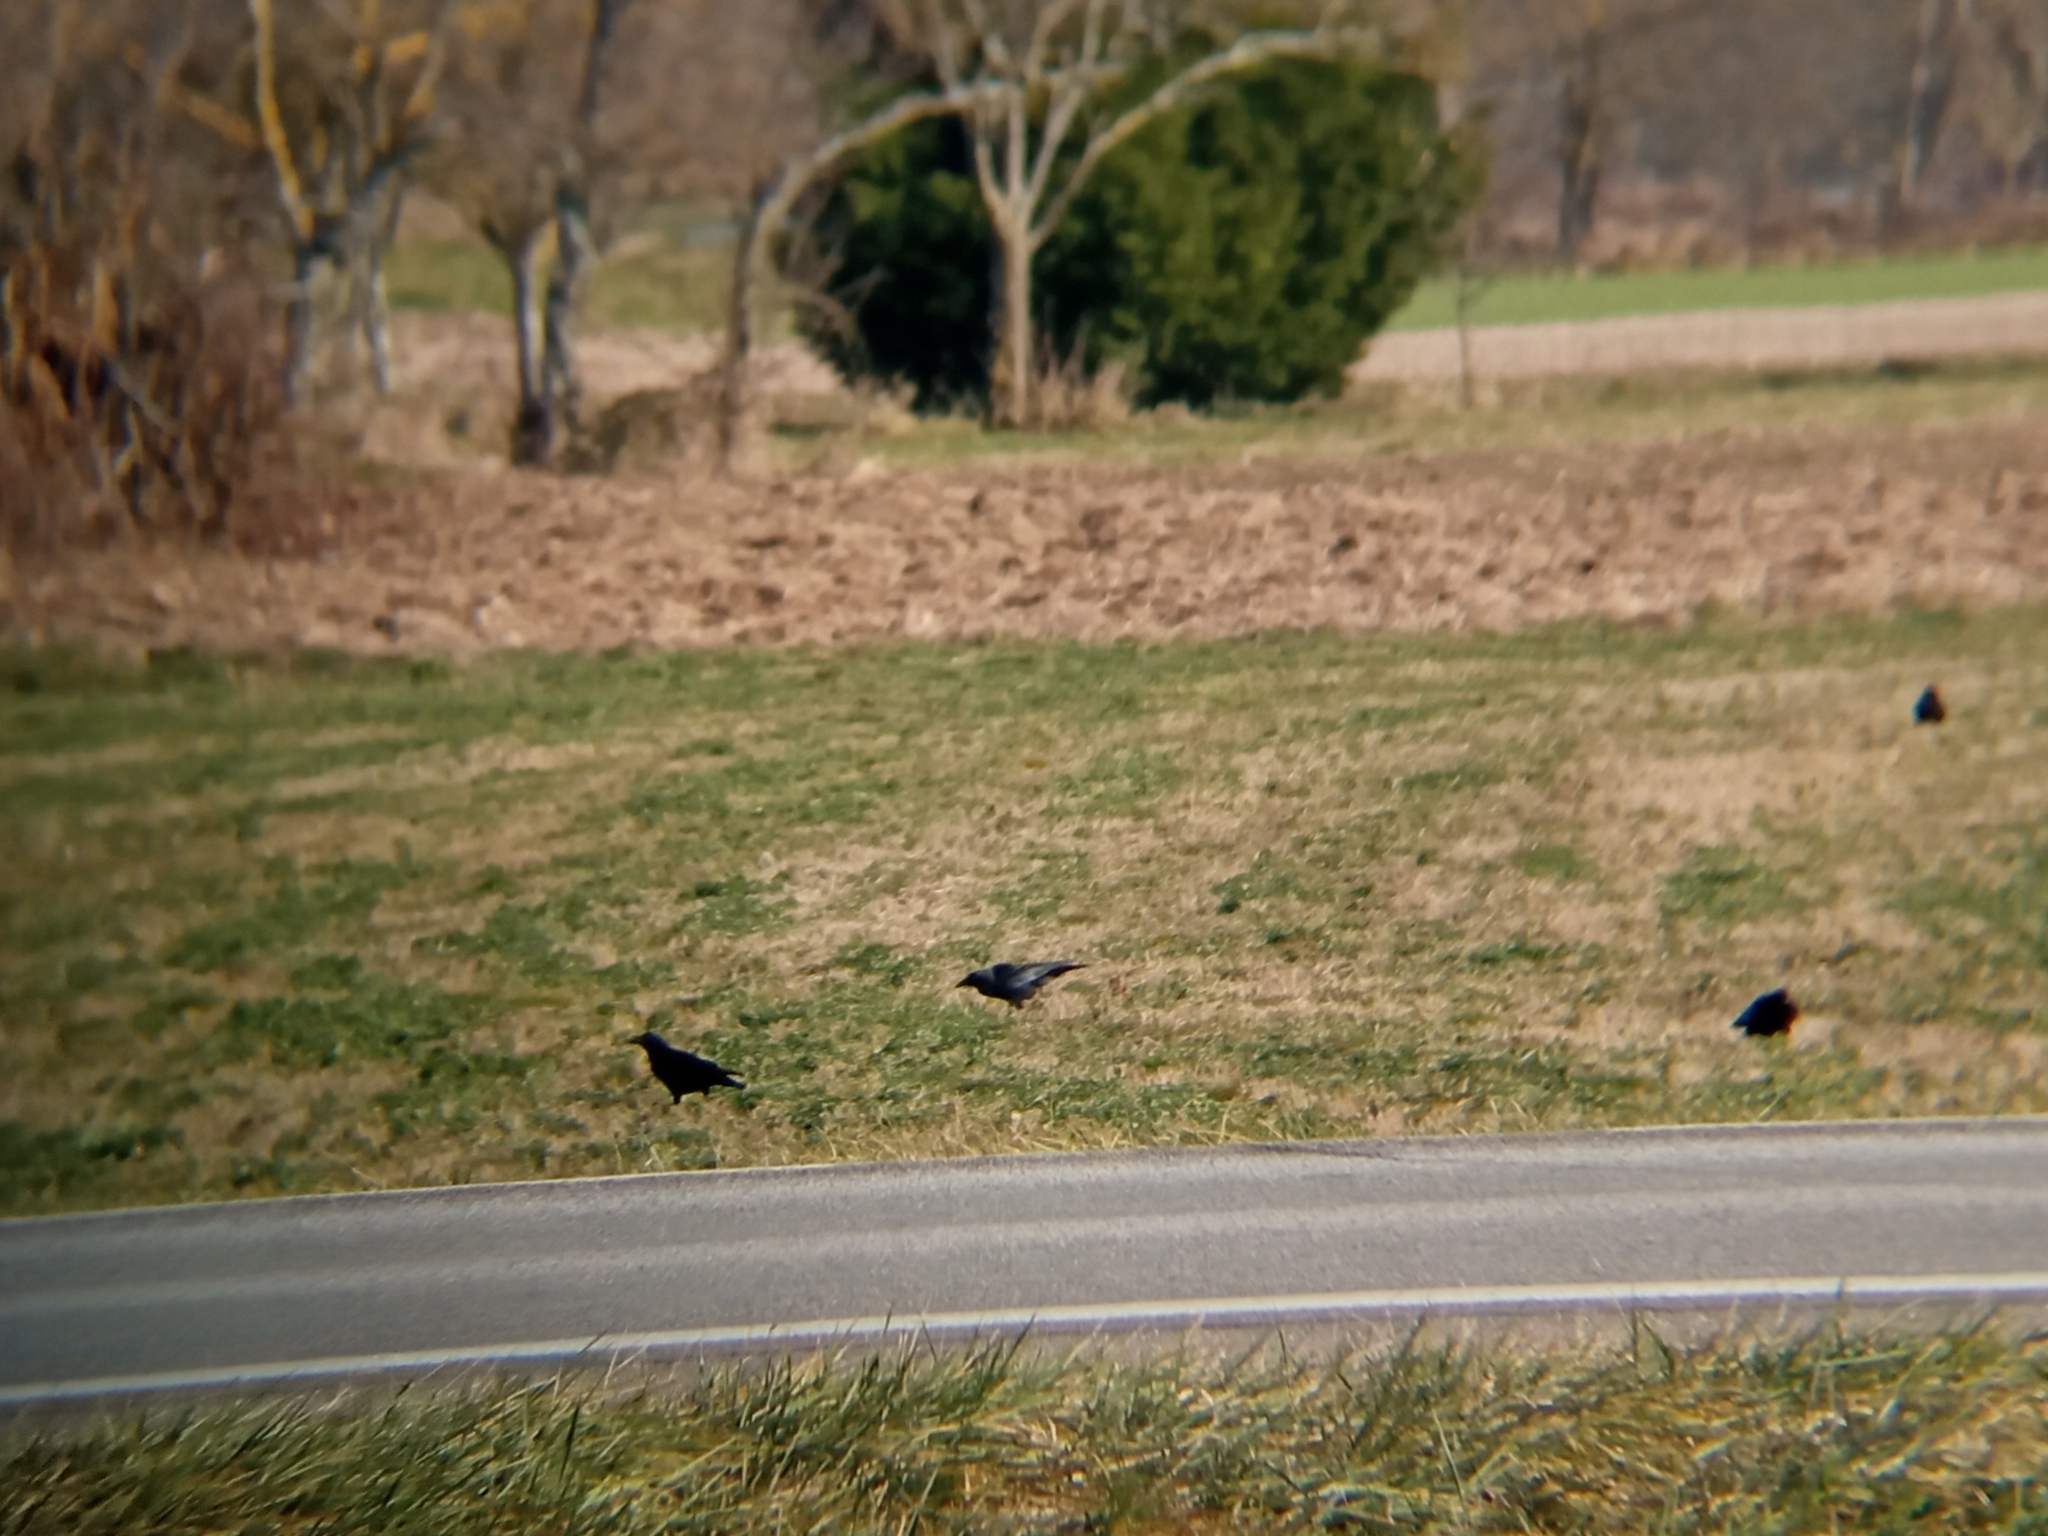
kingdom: Animalia
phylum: Chordata
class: Aves
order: Passeriformes
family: Corvidae
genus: Corvus
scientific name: Corvus corone
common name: Carrion crow
